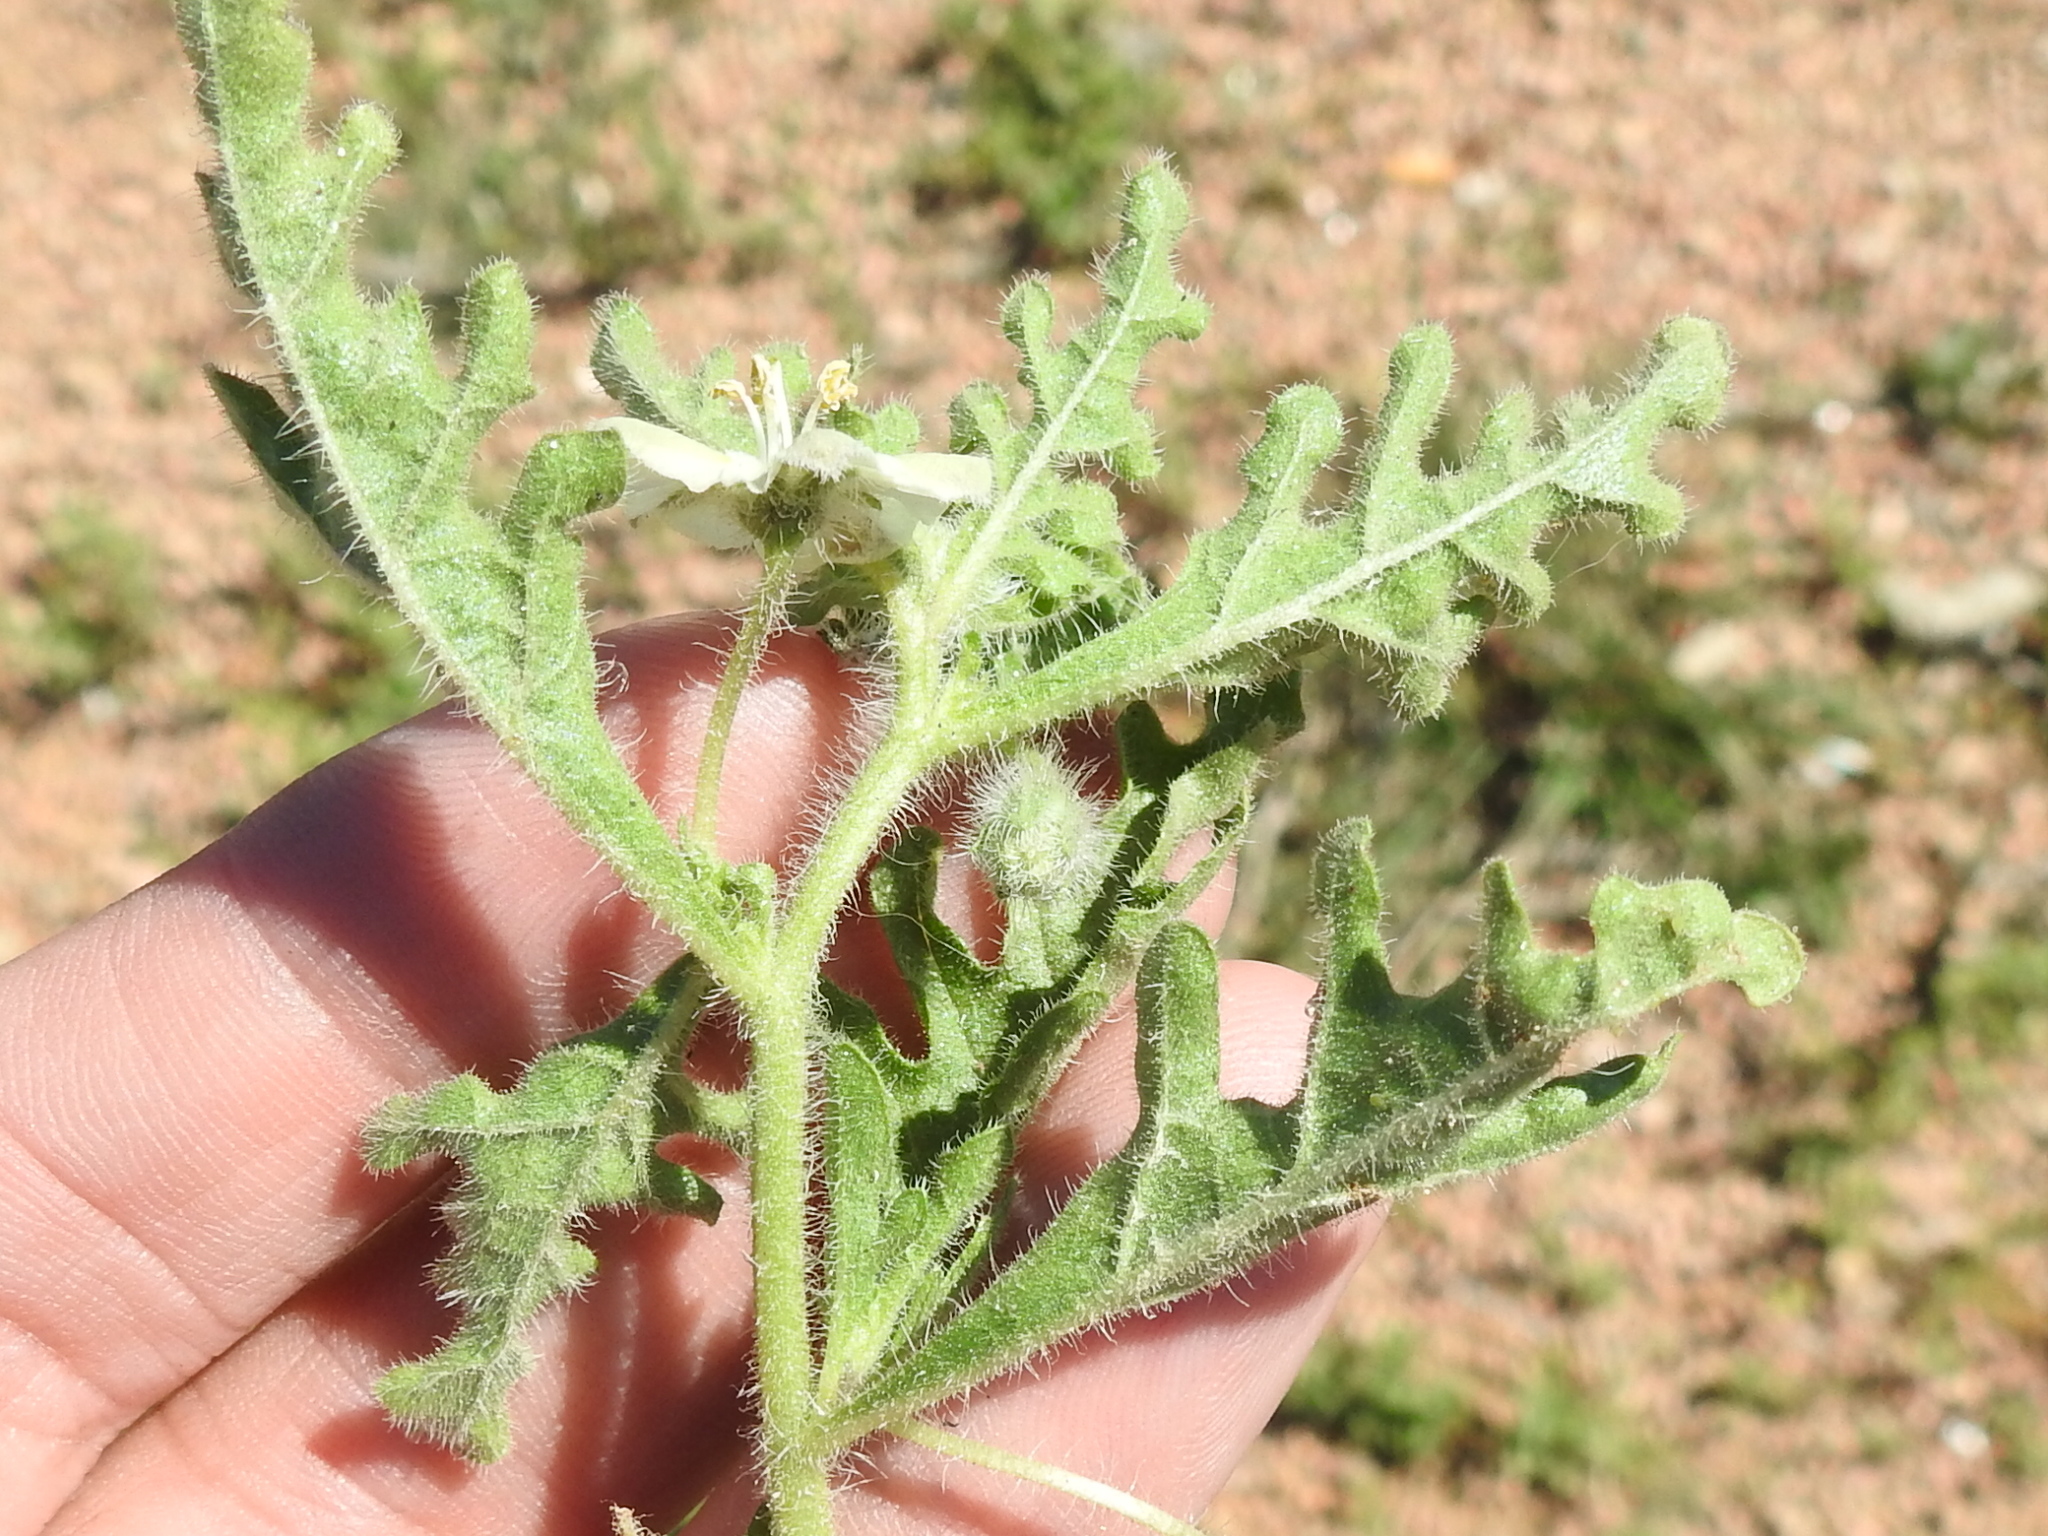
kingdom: Plantae
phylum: Tracheophyta
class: Magnoliopsida
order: Solanales
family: Solanaceae
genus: Chamaesaracha
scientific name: Chamaesaracha coniodes
